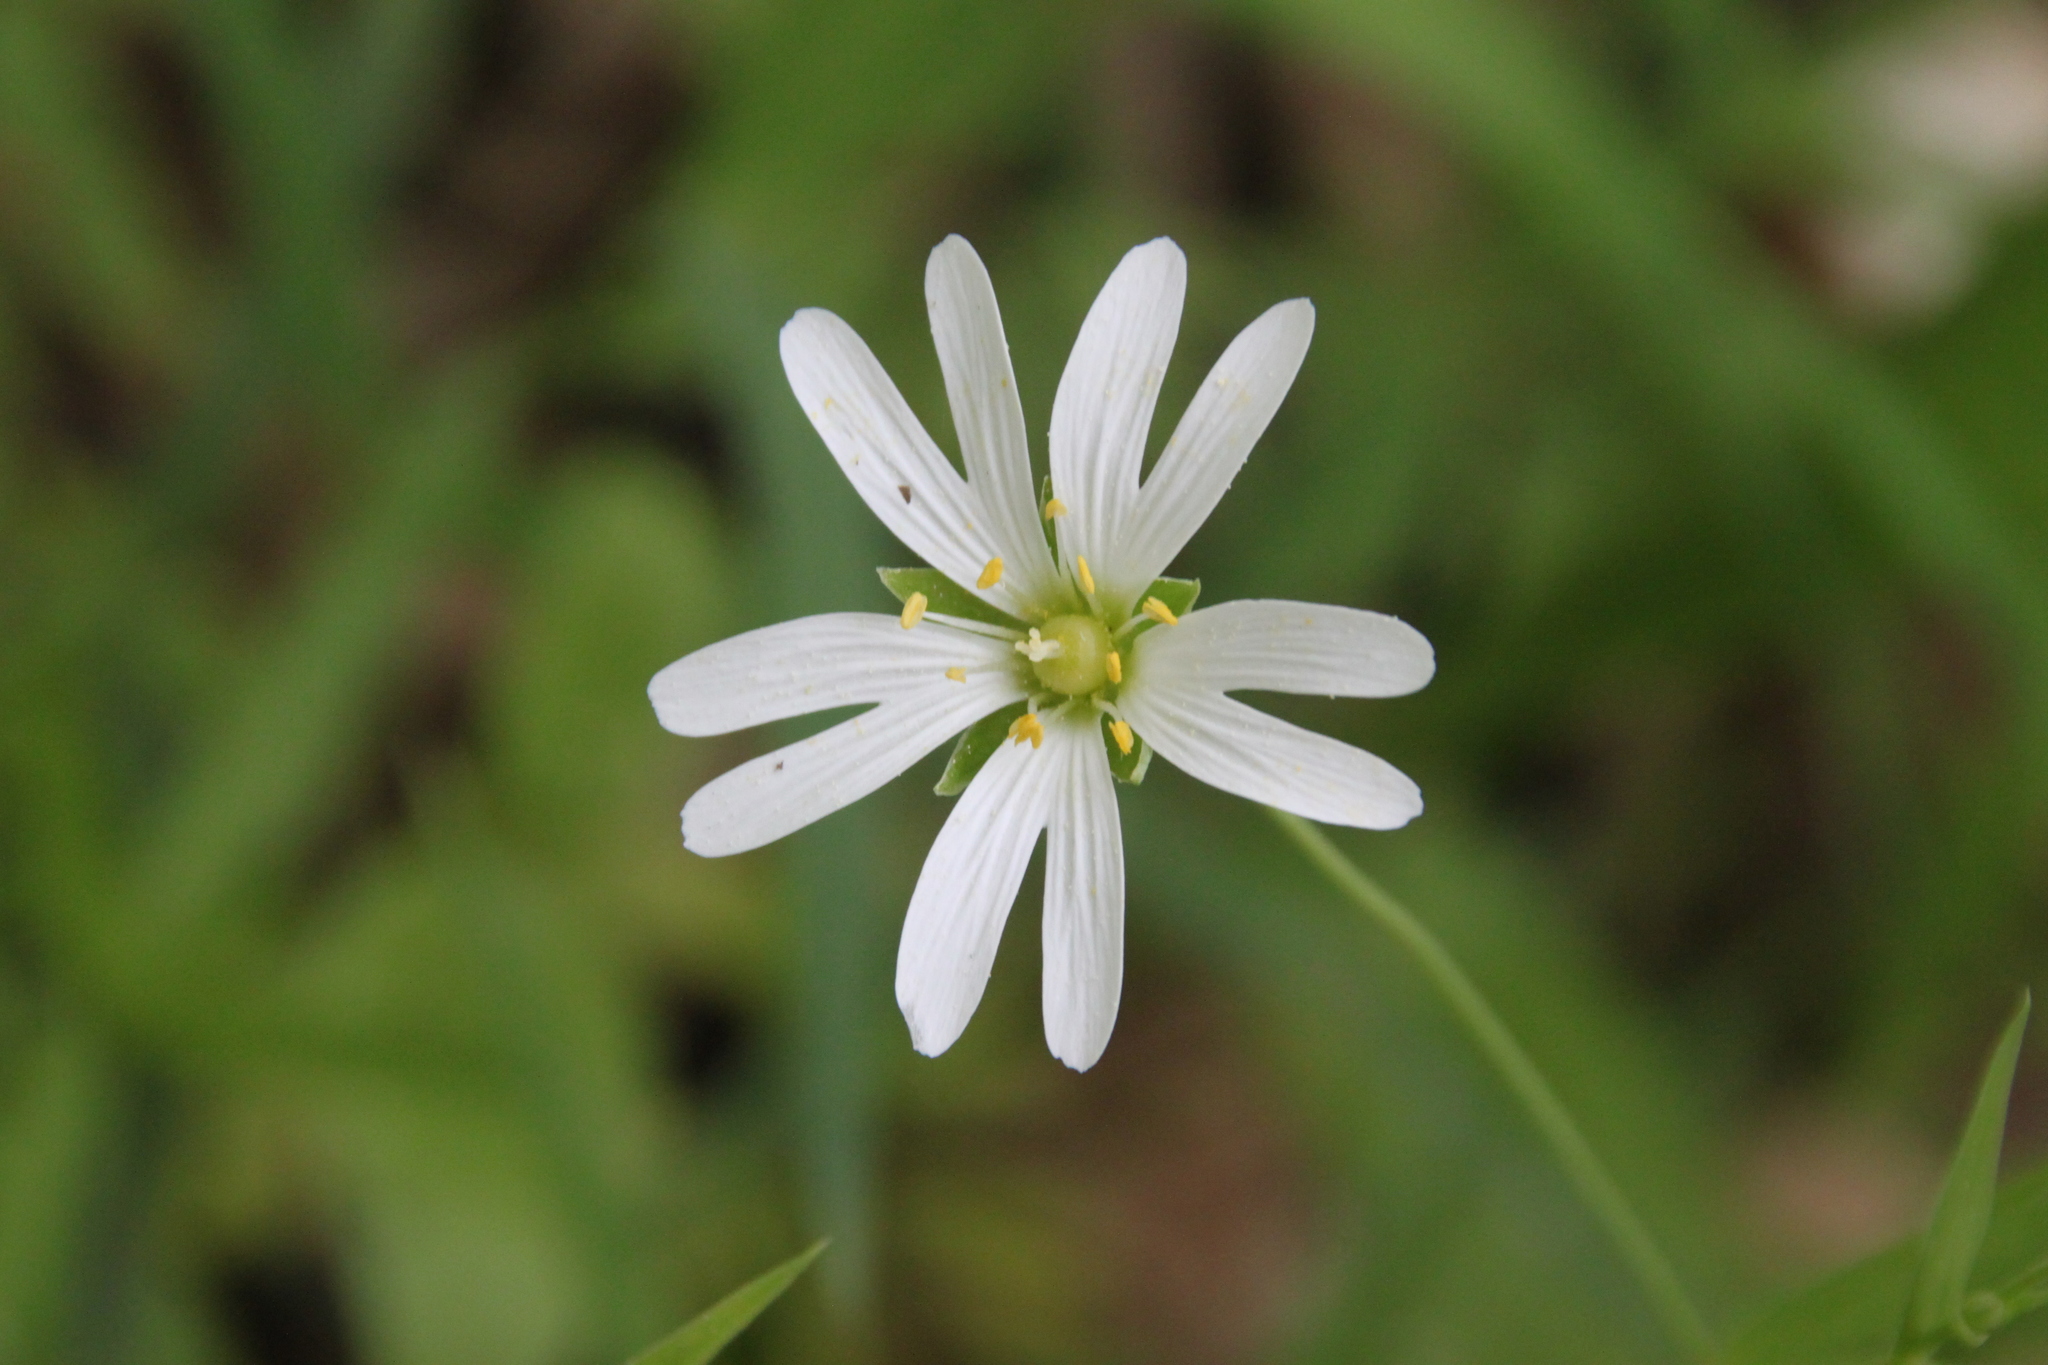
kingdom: Plantae
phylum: Tracheophyta
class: Magnoliopsida
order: Caryophyllales
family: Caryophyllaceae
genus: Rabelera
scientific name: Rabelera holostea
